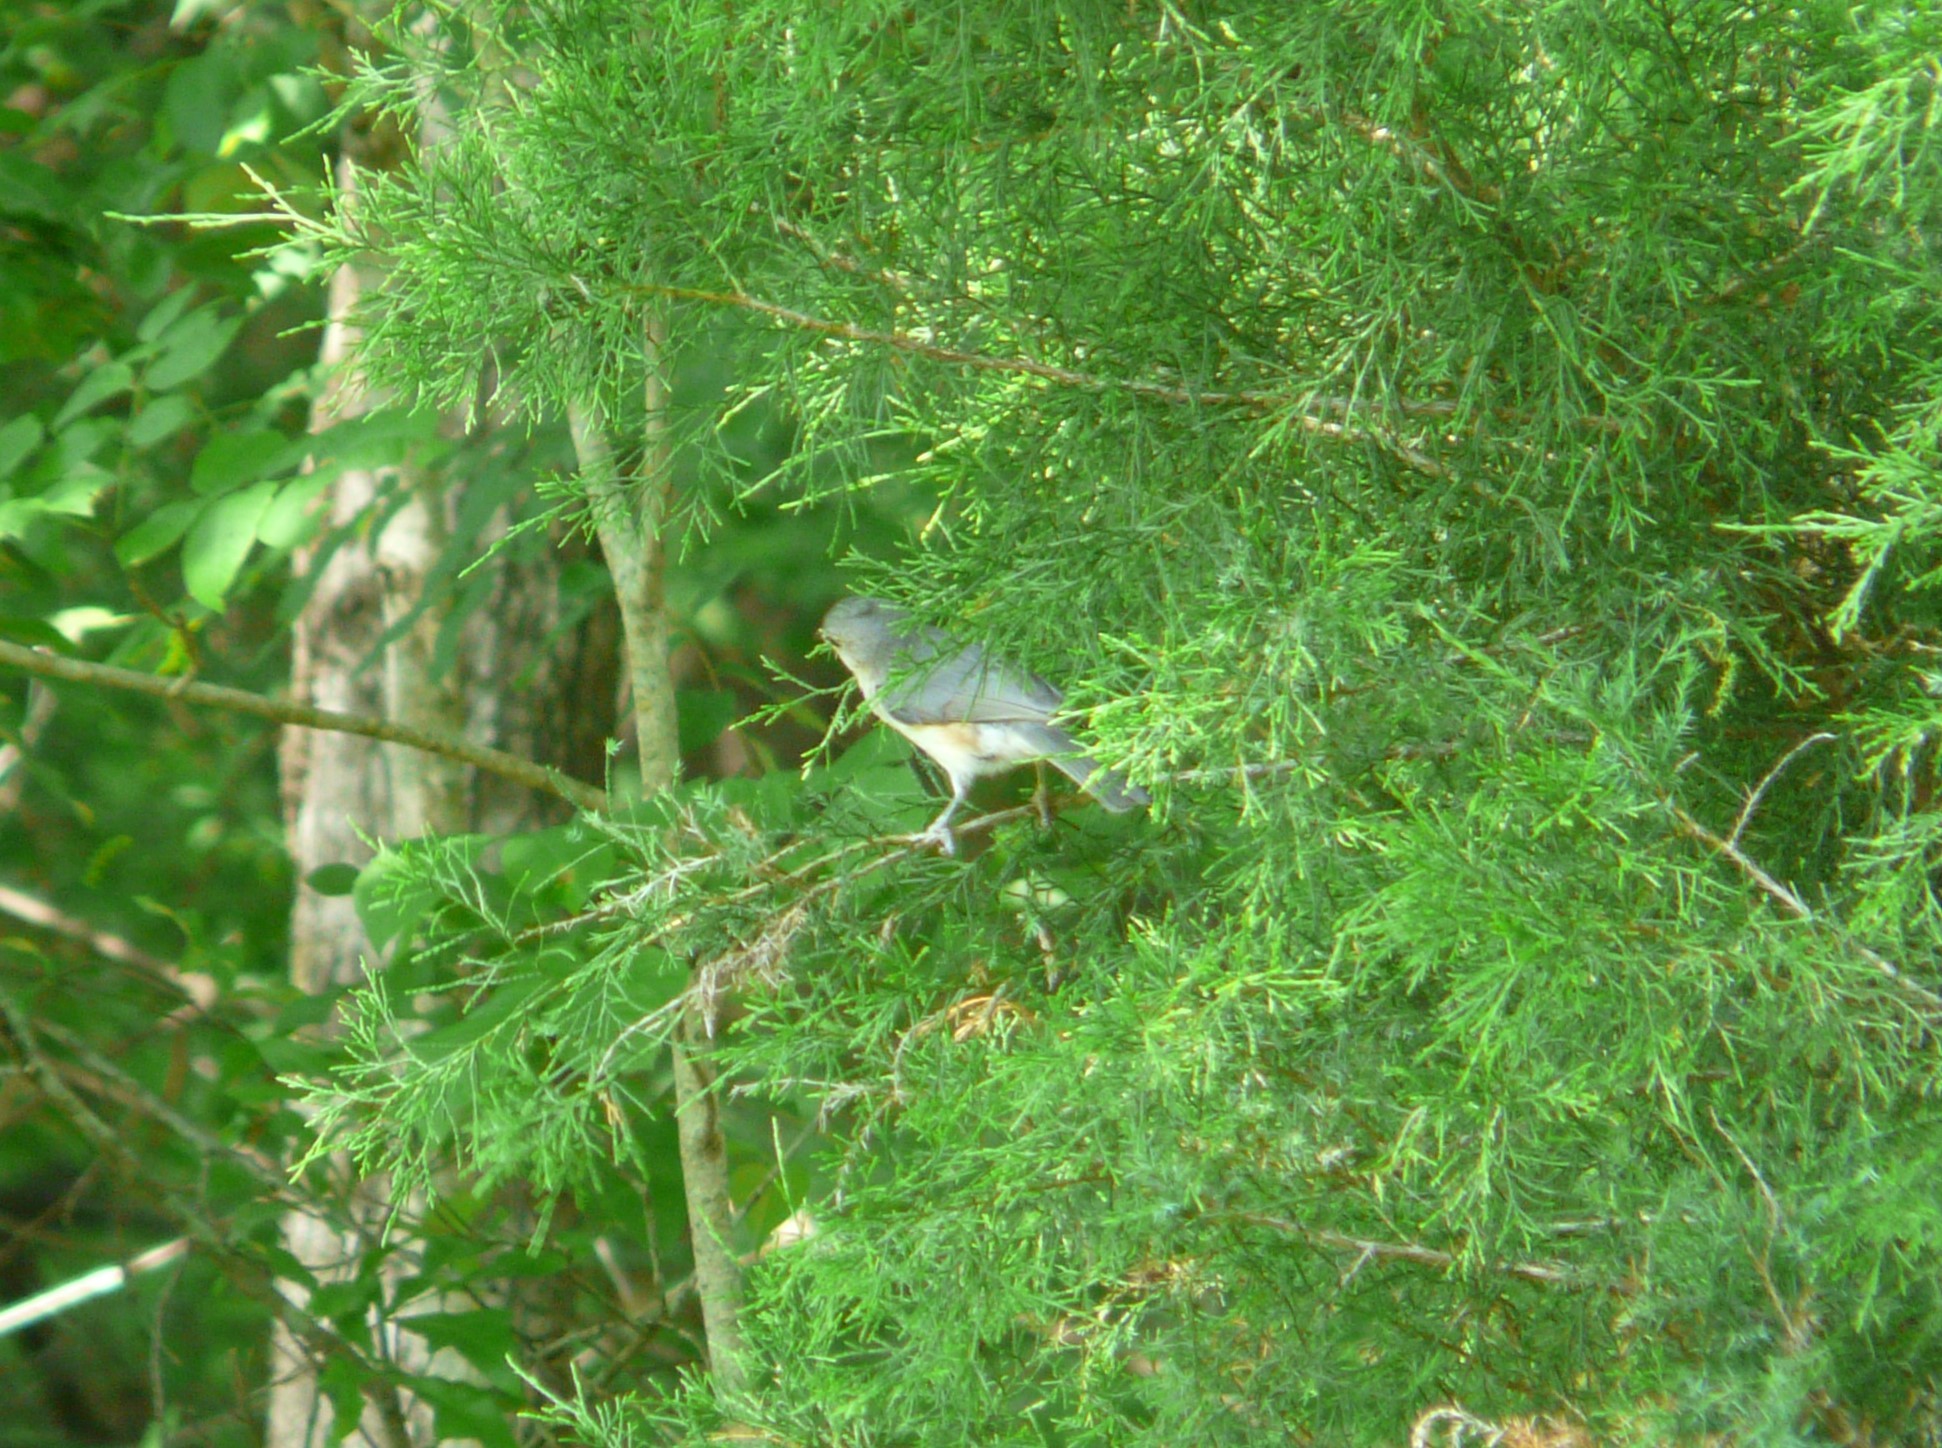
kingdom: Animalia
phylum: Chordata
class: Aves
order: Passeriformes
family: Paridae
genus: Baeolophus
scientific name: Baeolophus bicolor
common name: Tufted titmouse
